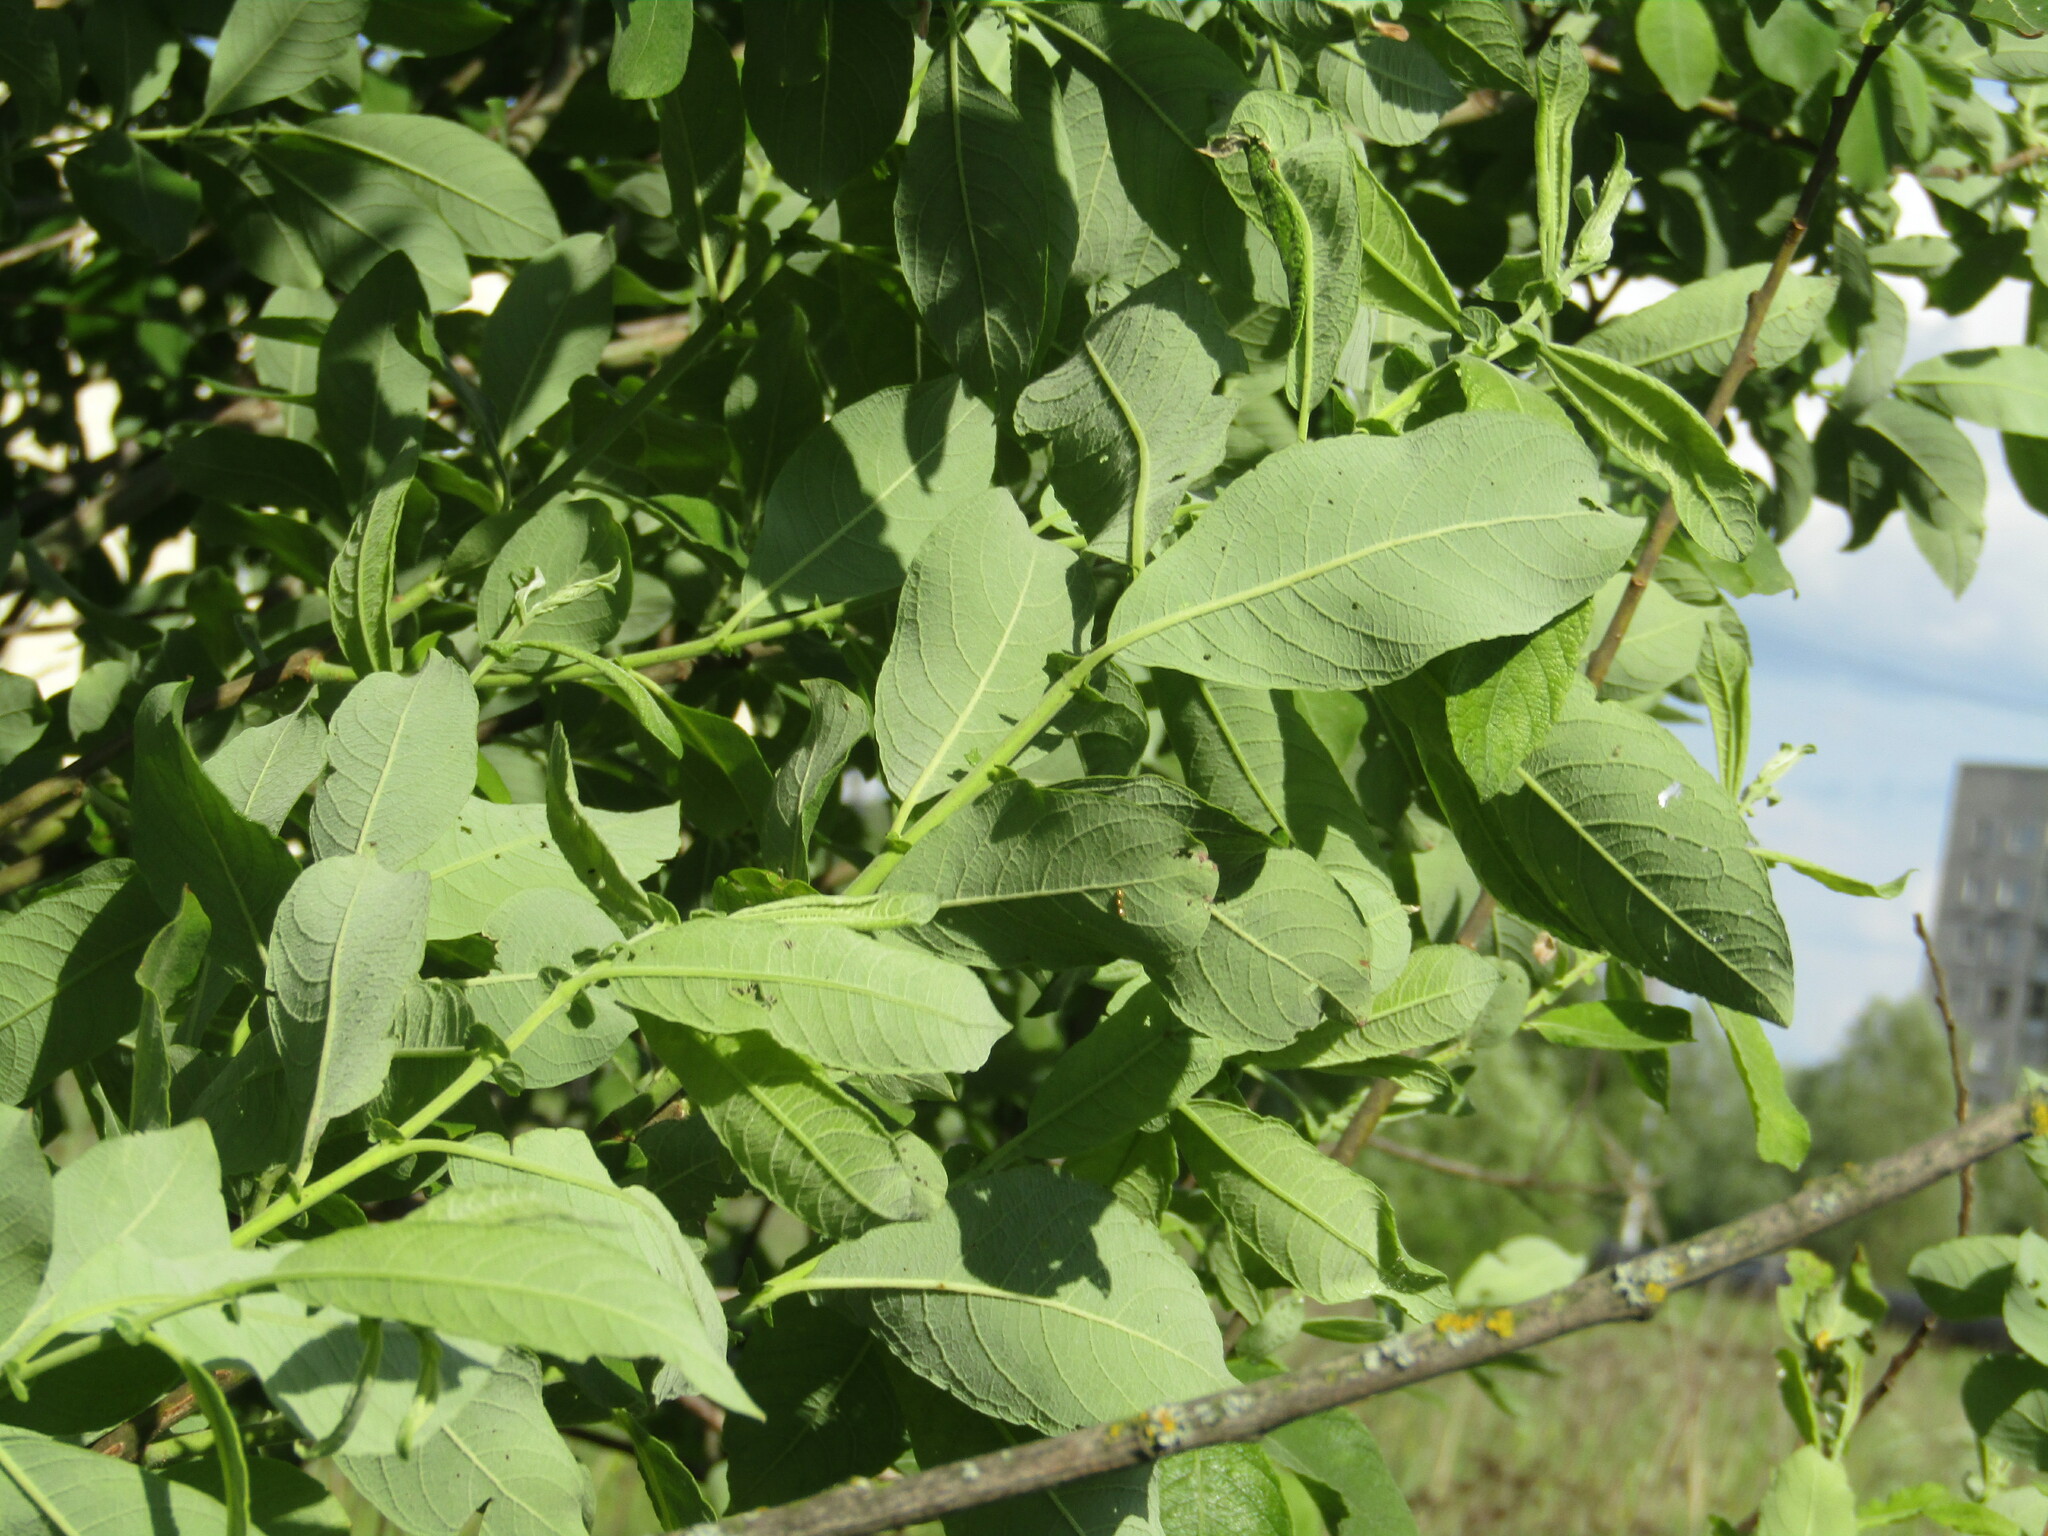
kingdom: Plantae
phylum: Tracheophyta
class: Magnoliopsida
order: Malpighiales
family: Salicaceae
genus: Salix
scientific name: Salix cinerea
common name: Common sallow
